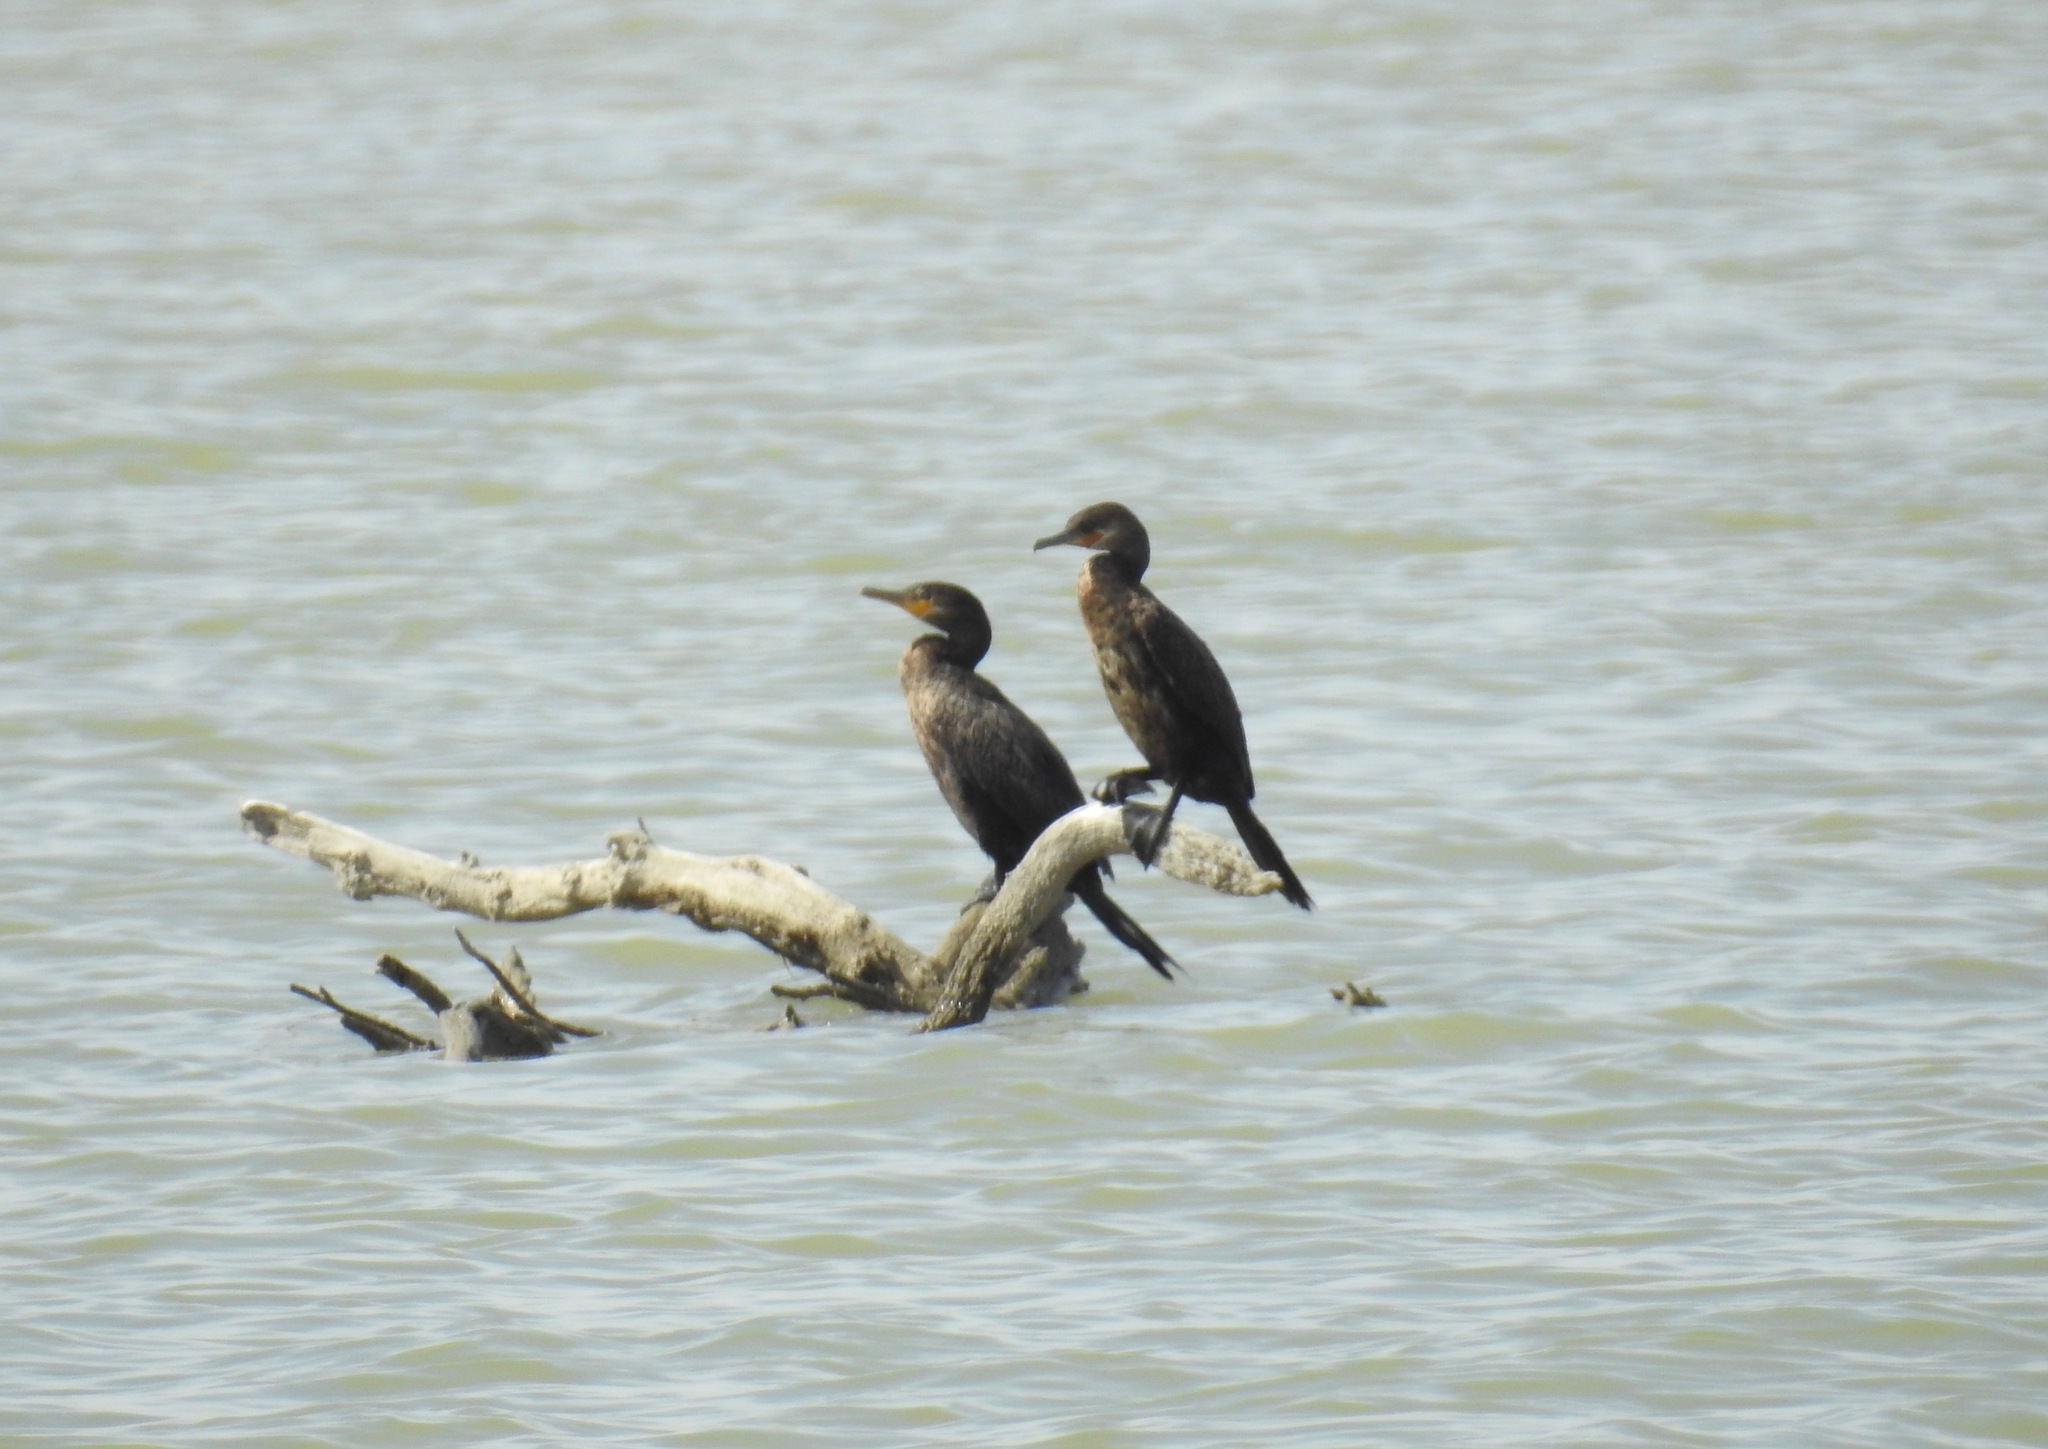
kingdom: Animalia
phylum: Chordata
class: Aves
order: Suliformes
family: Phalacrocoracidae
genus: Phalacrocorax
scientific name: Phalacrocorax brasilianus
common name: Neotropic cormorant
